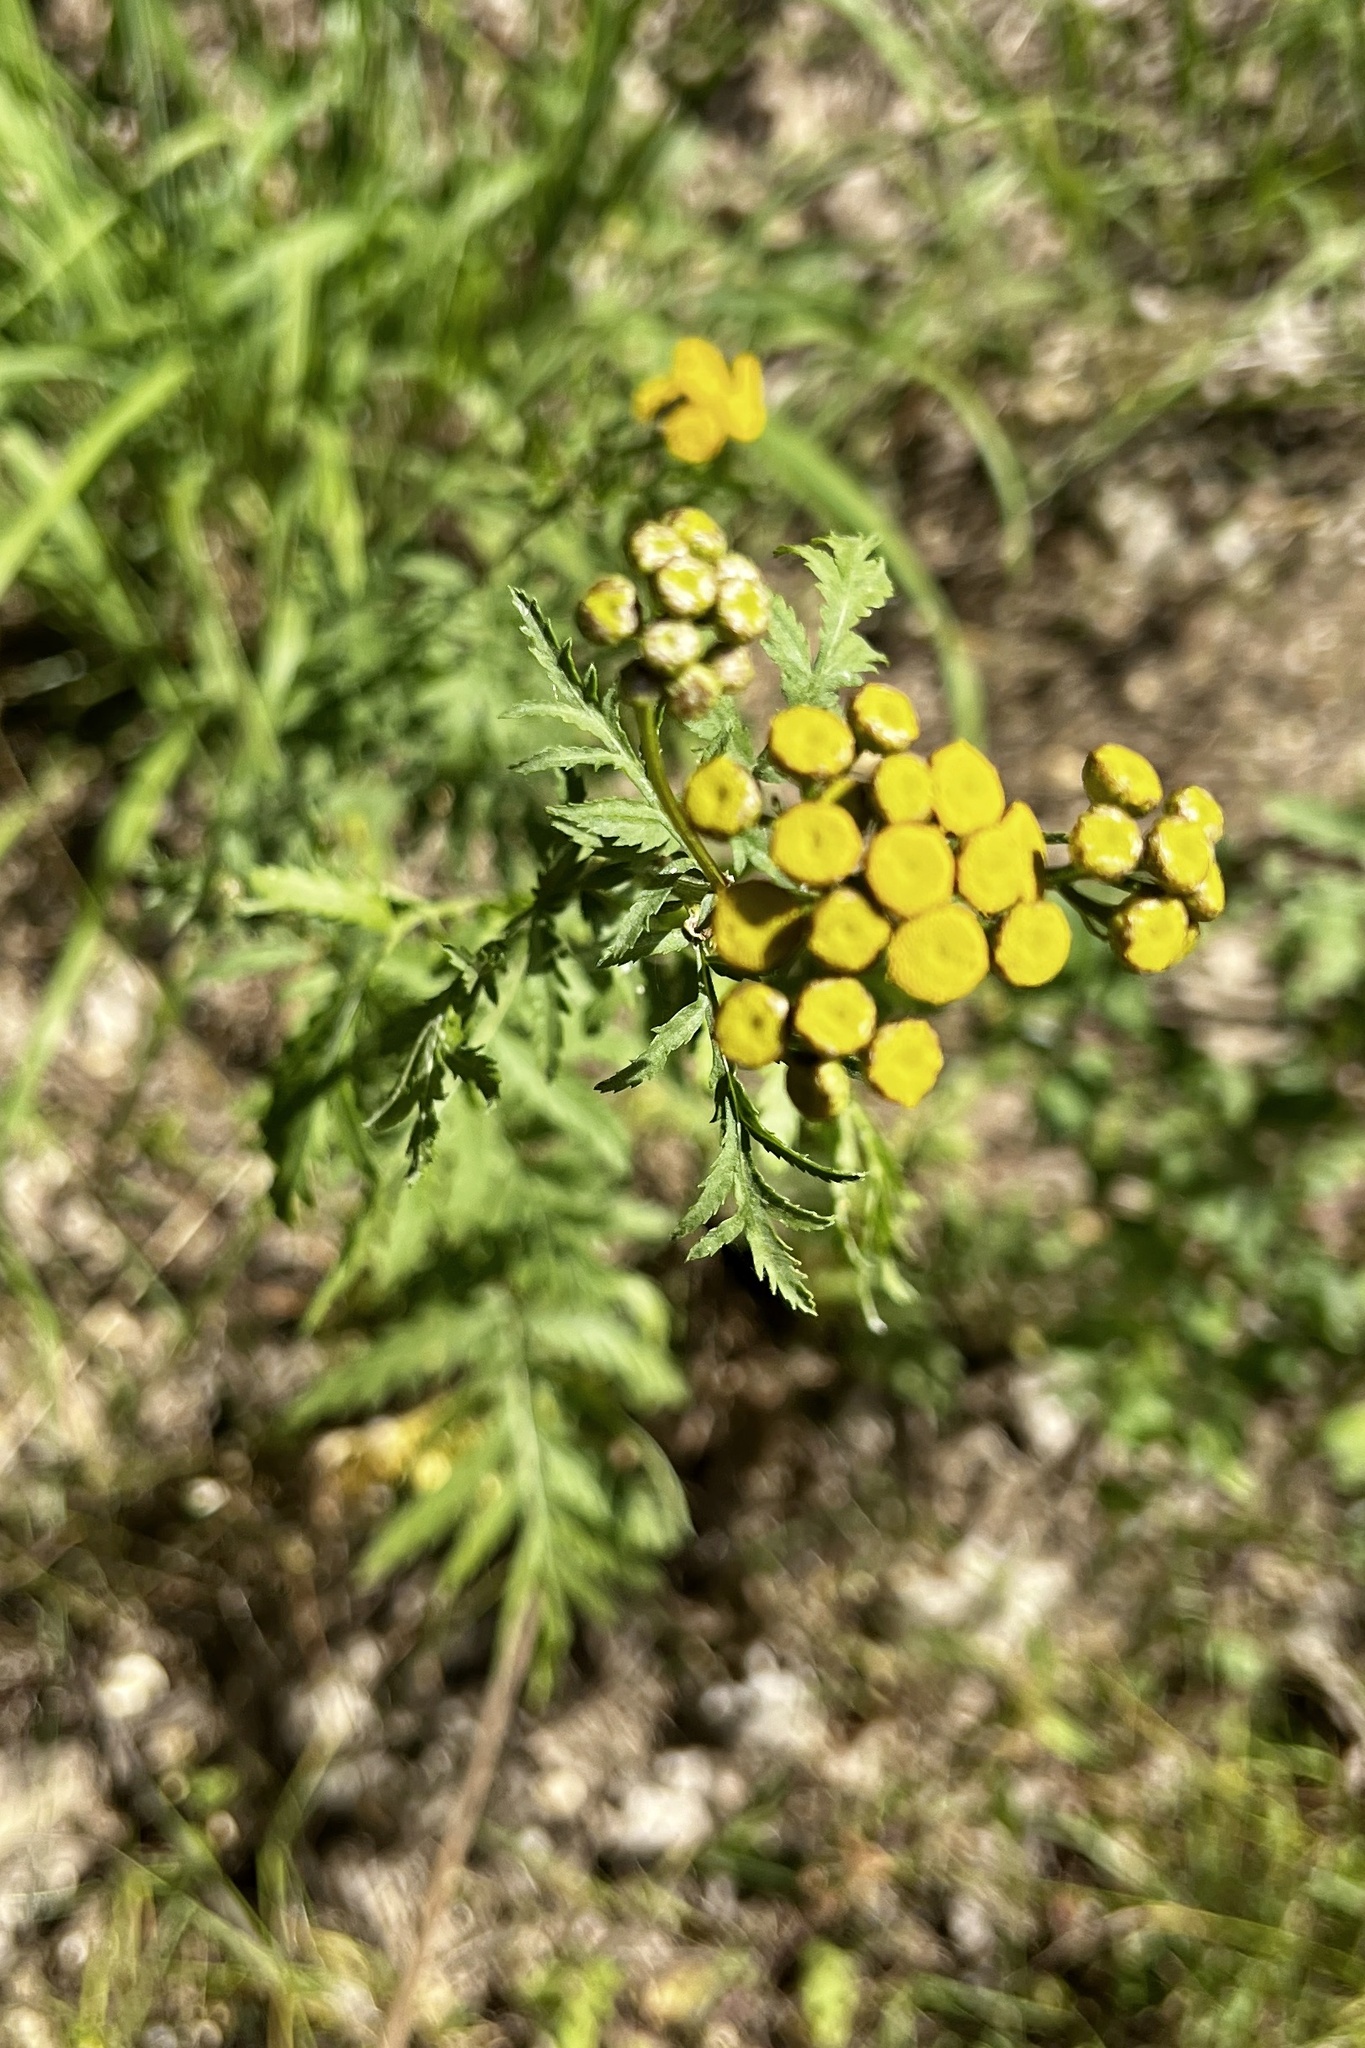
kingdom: Plantae
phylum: Tracheophyta
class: Magnoliopsida
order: Asterales
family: Asteraceae
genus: Tanacetum
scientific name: Tanacetum vulgare
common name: Common tansy
